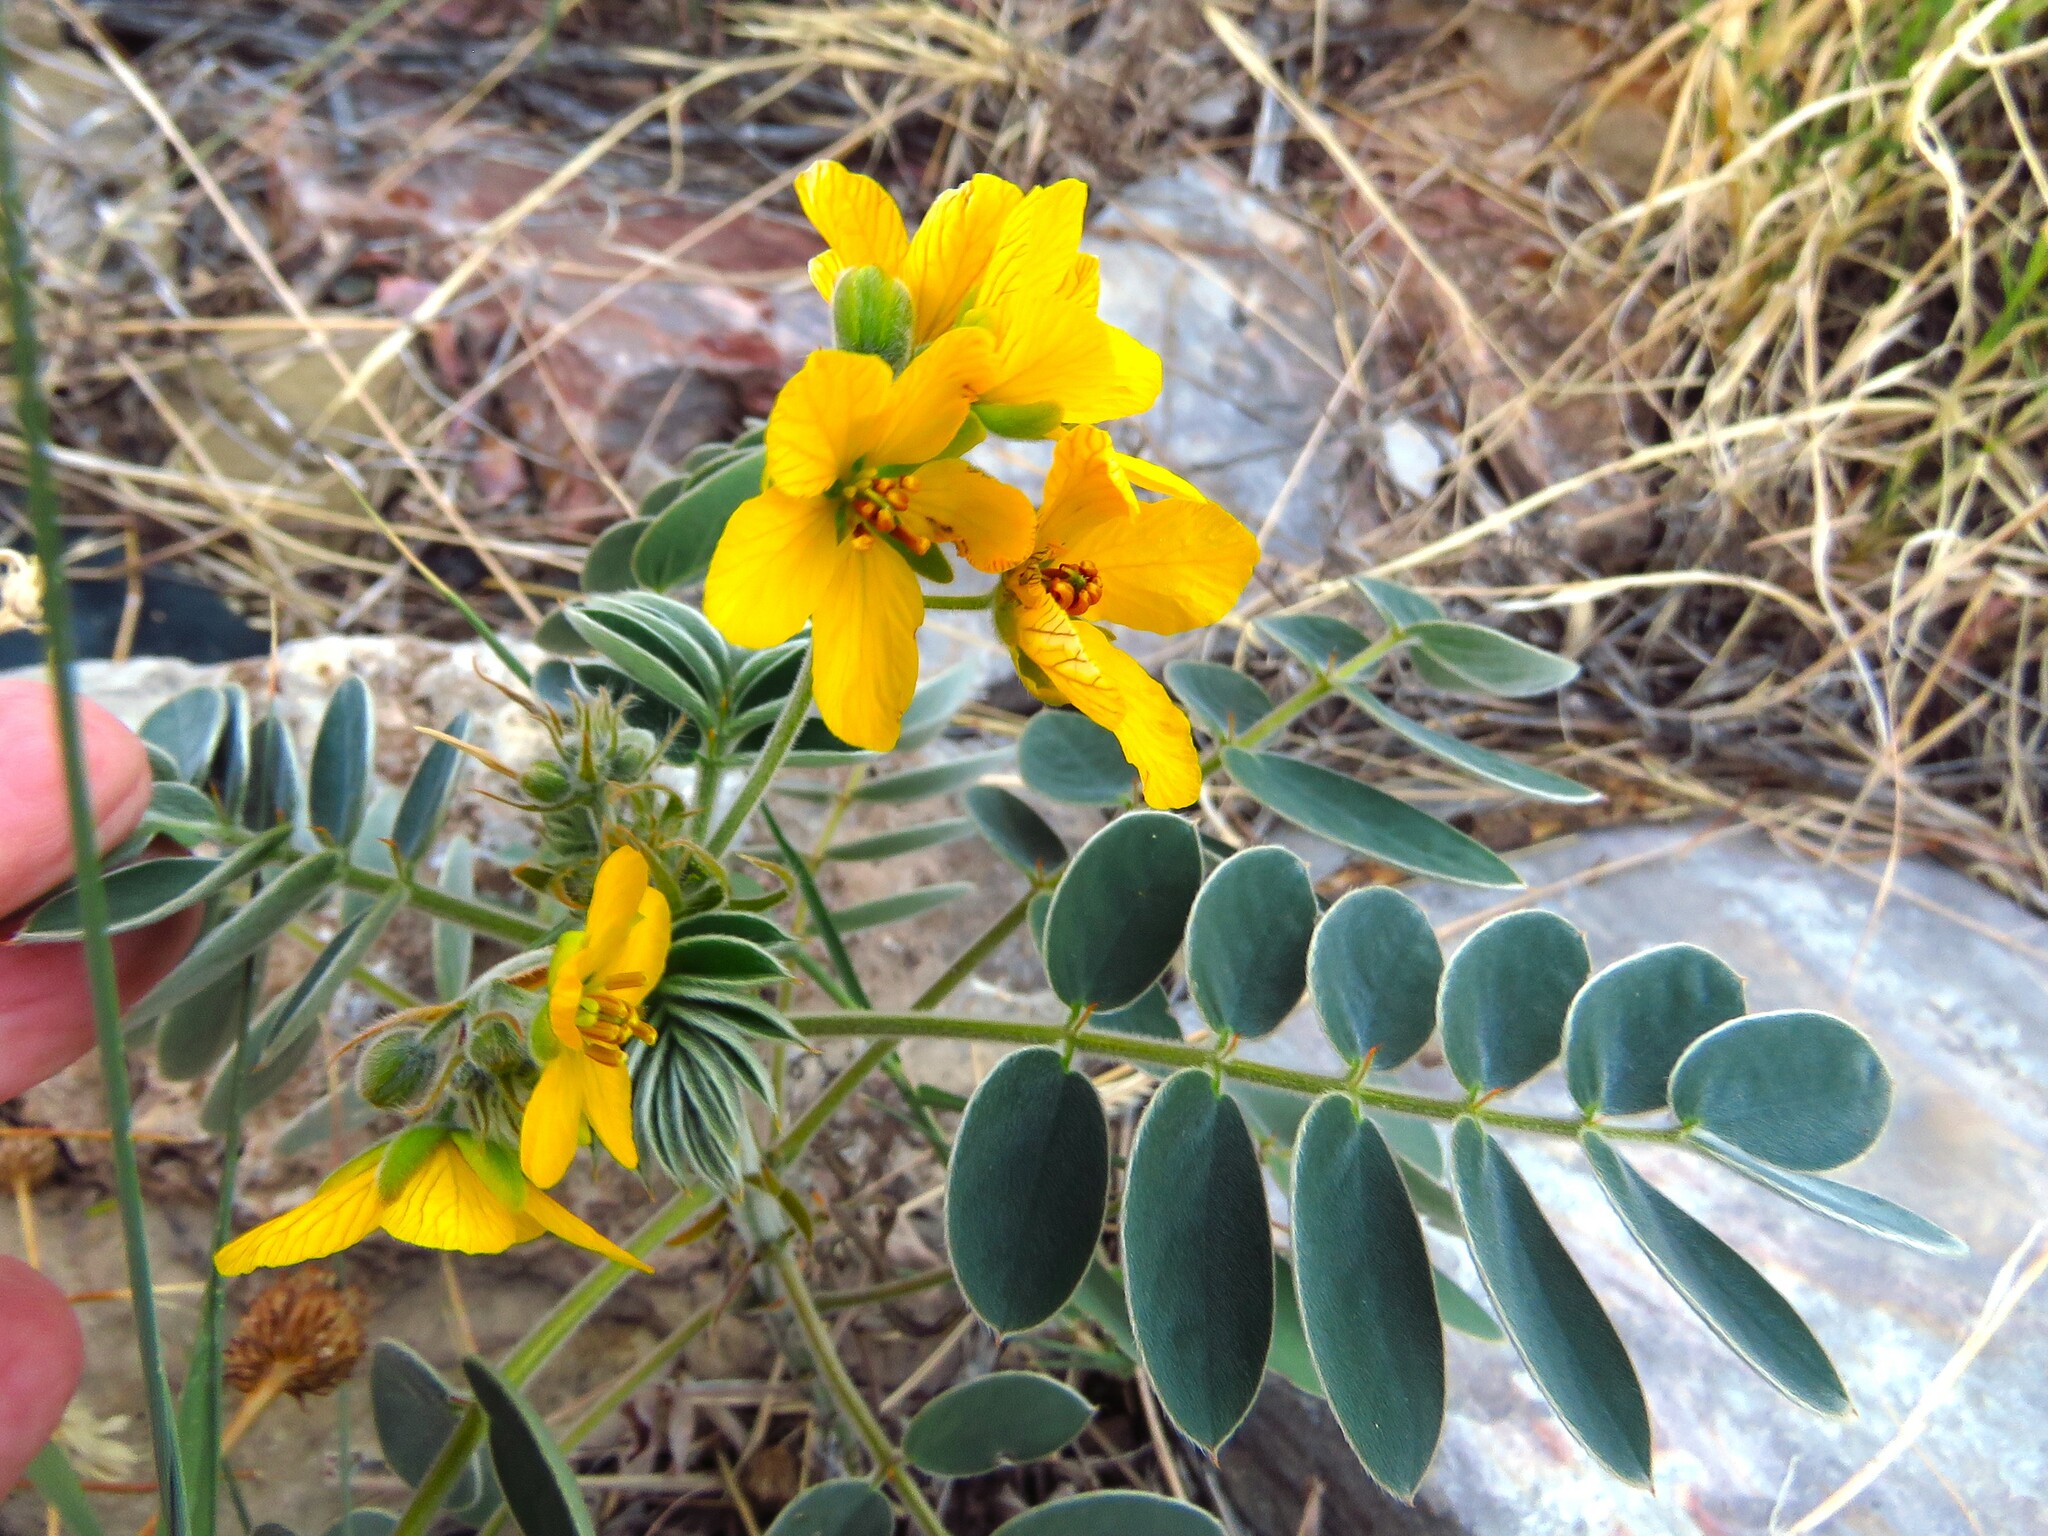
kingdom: Plantae
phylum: Tracheophyta
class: Magnoliopsida
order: Fabales
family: Fabaceae
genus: Senna
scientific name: Senna lindheimeriana
